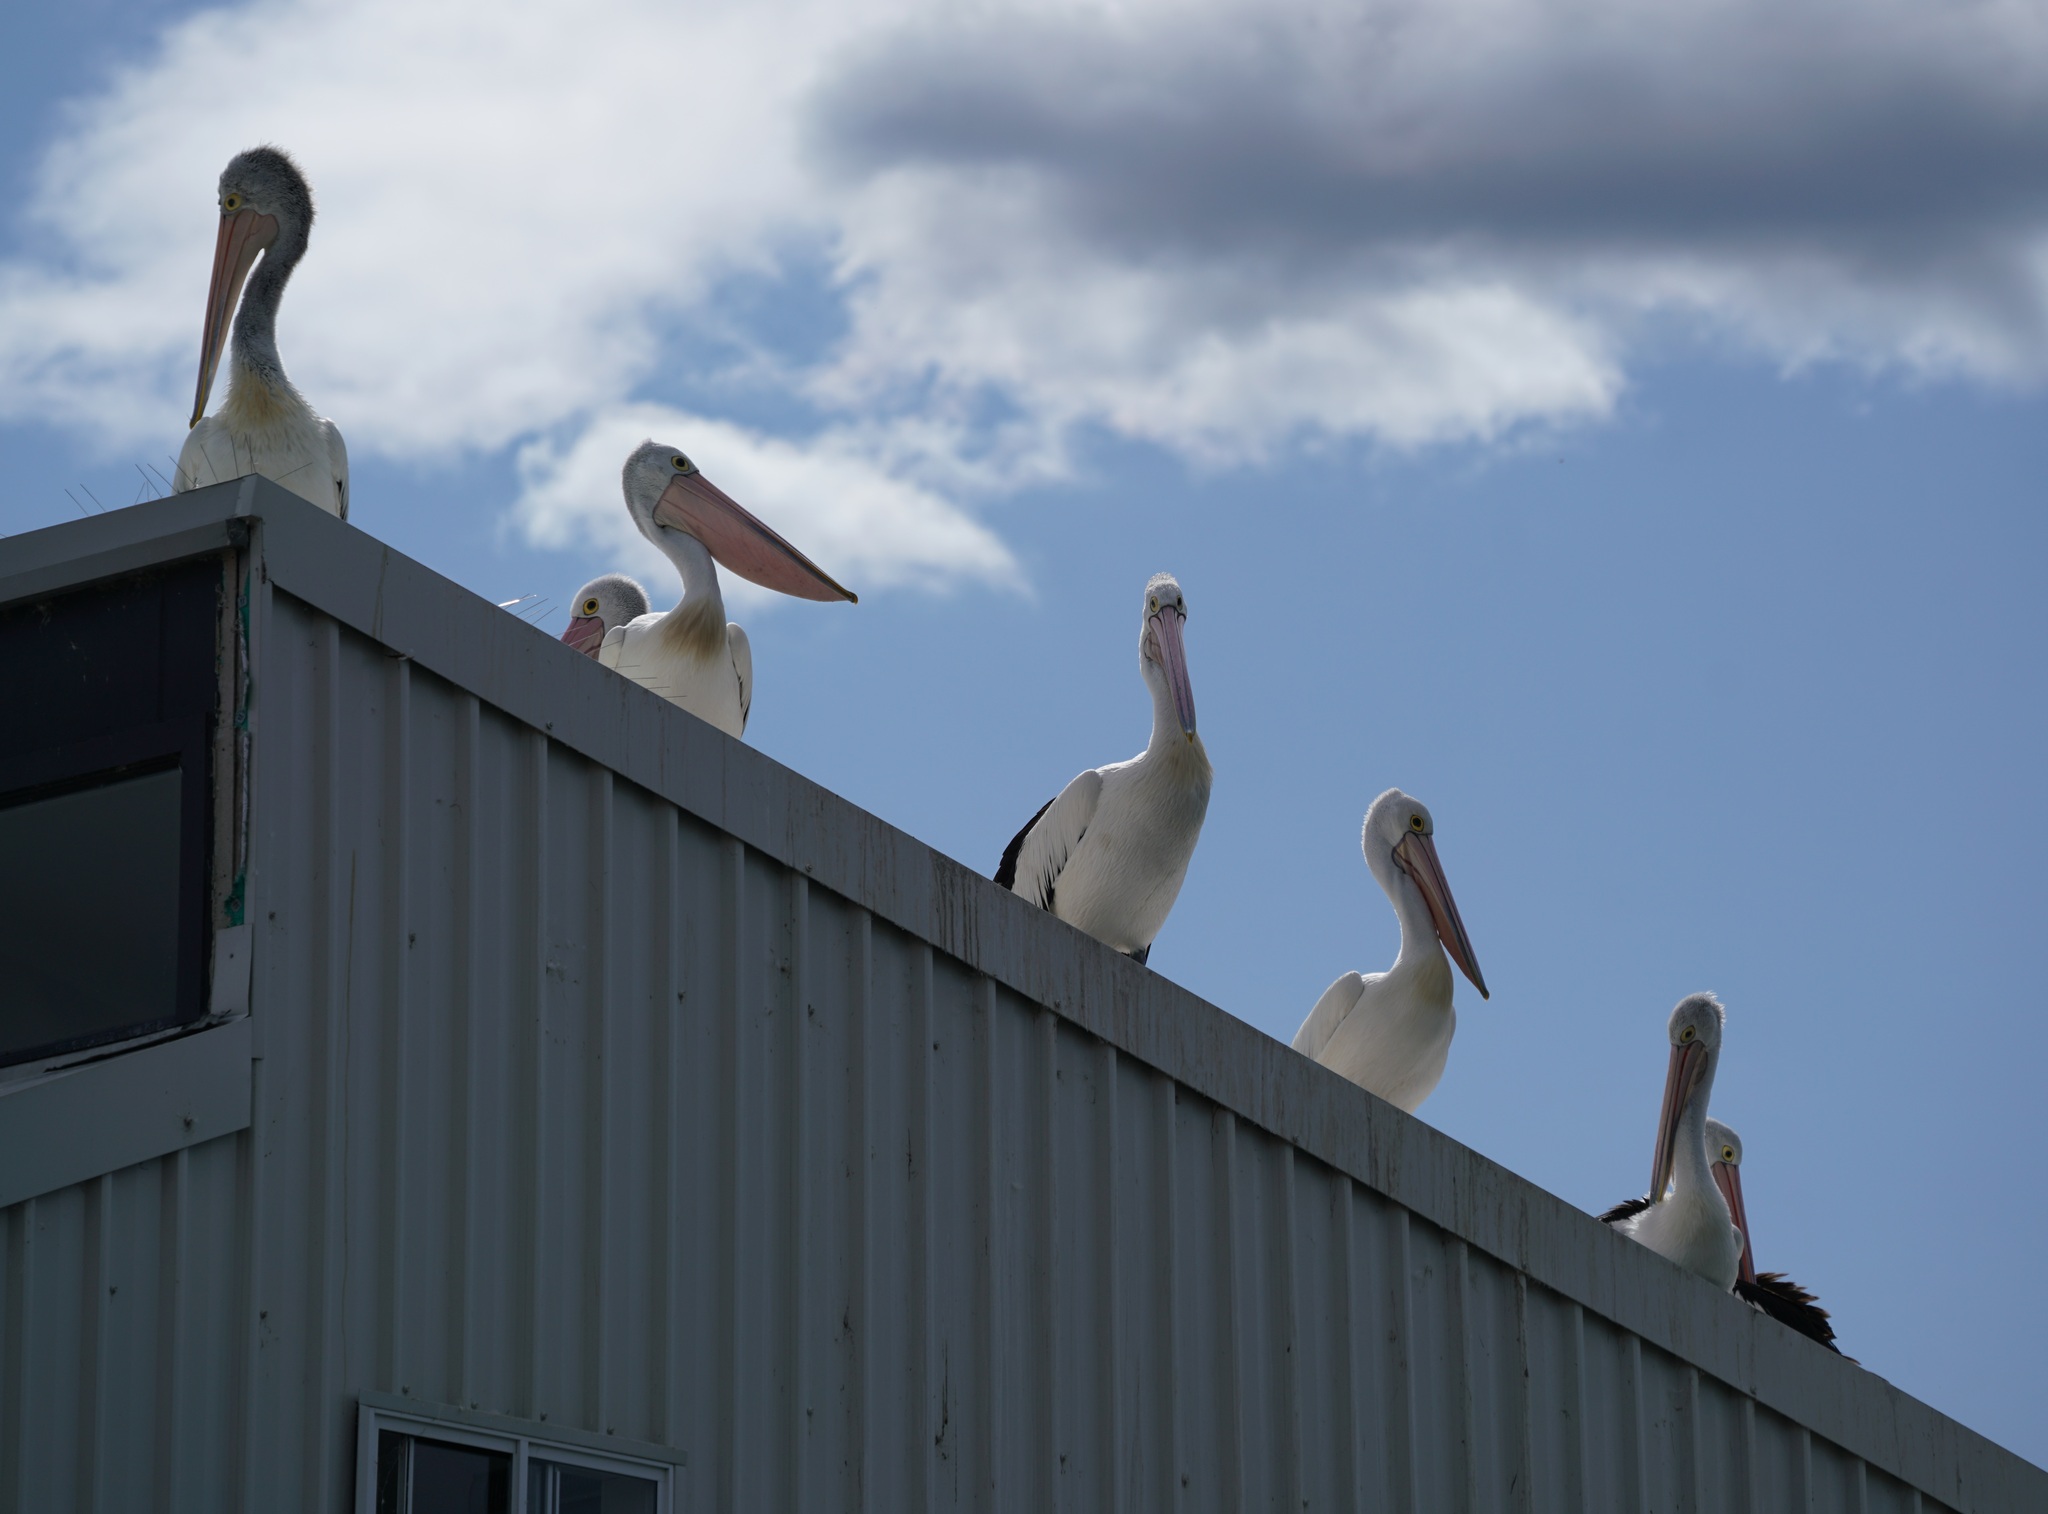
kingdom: Animalia
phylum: Chordata
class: Aves
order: Pelecaniformes
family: Pelecanidae
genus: Pelecanus
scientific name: Pelecanus conspicillatus
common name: Australian pelican
